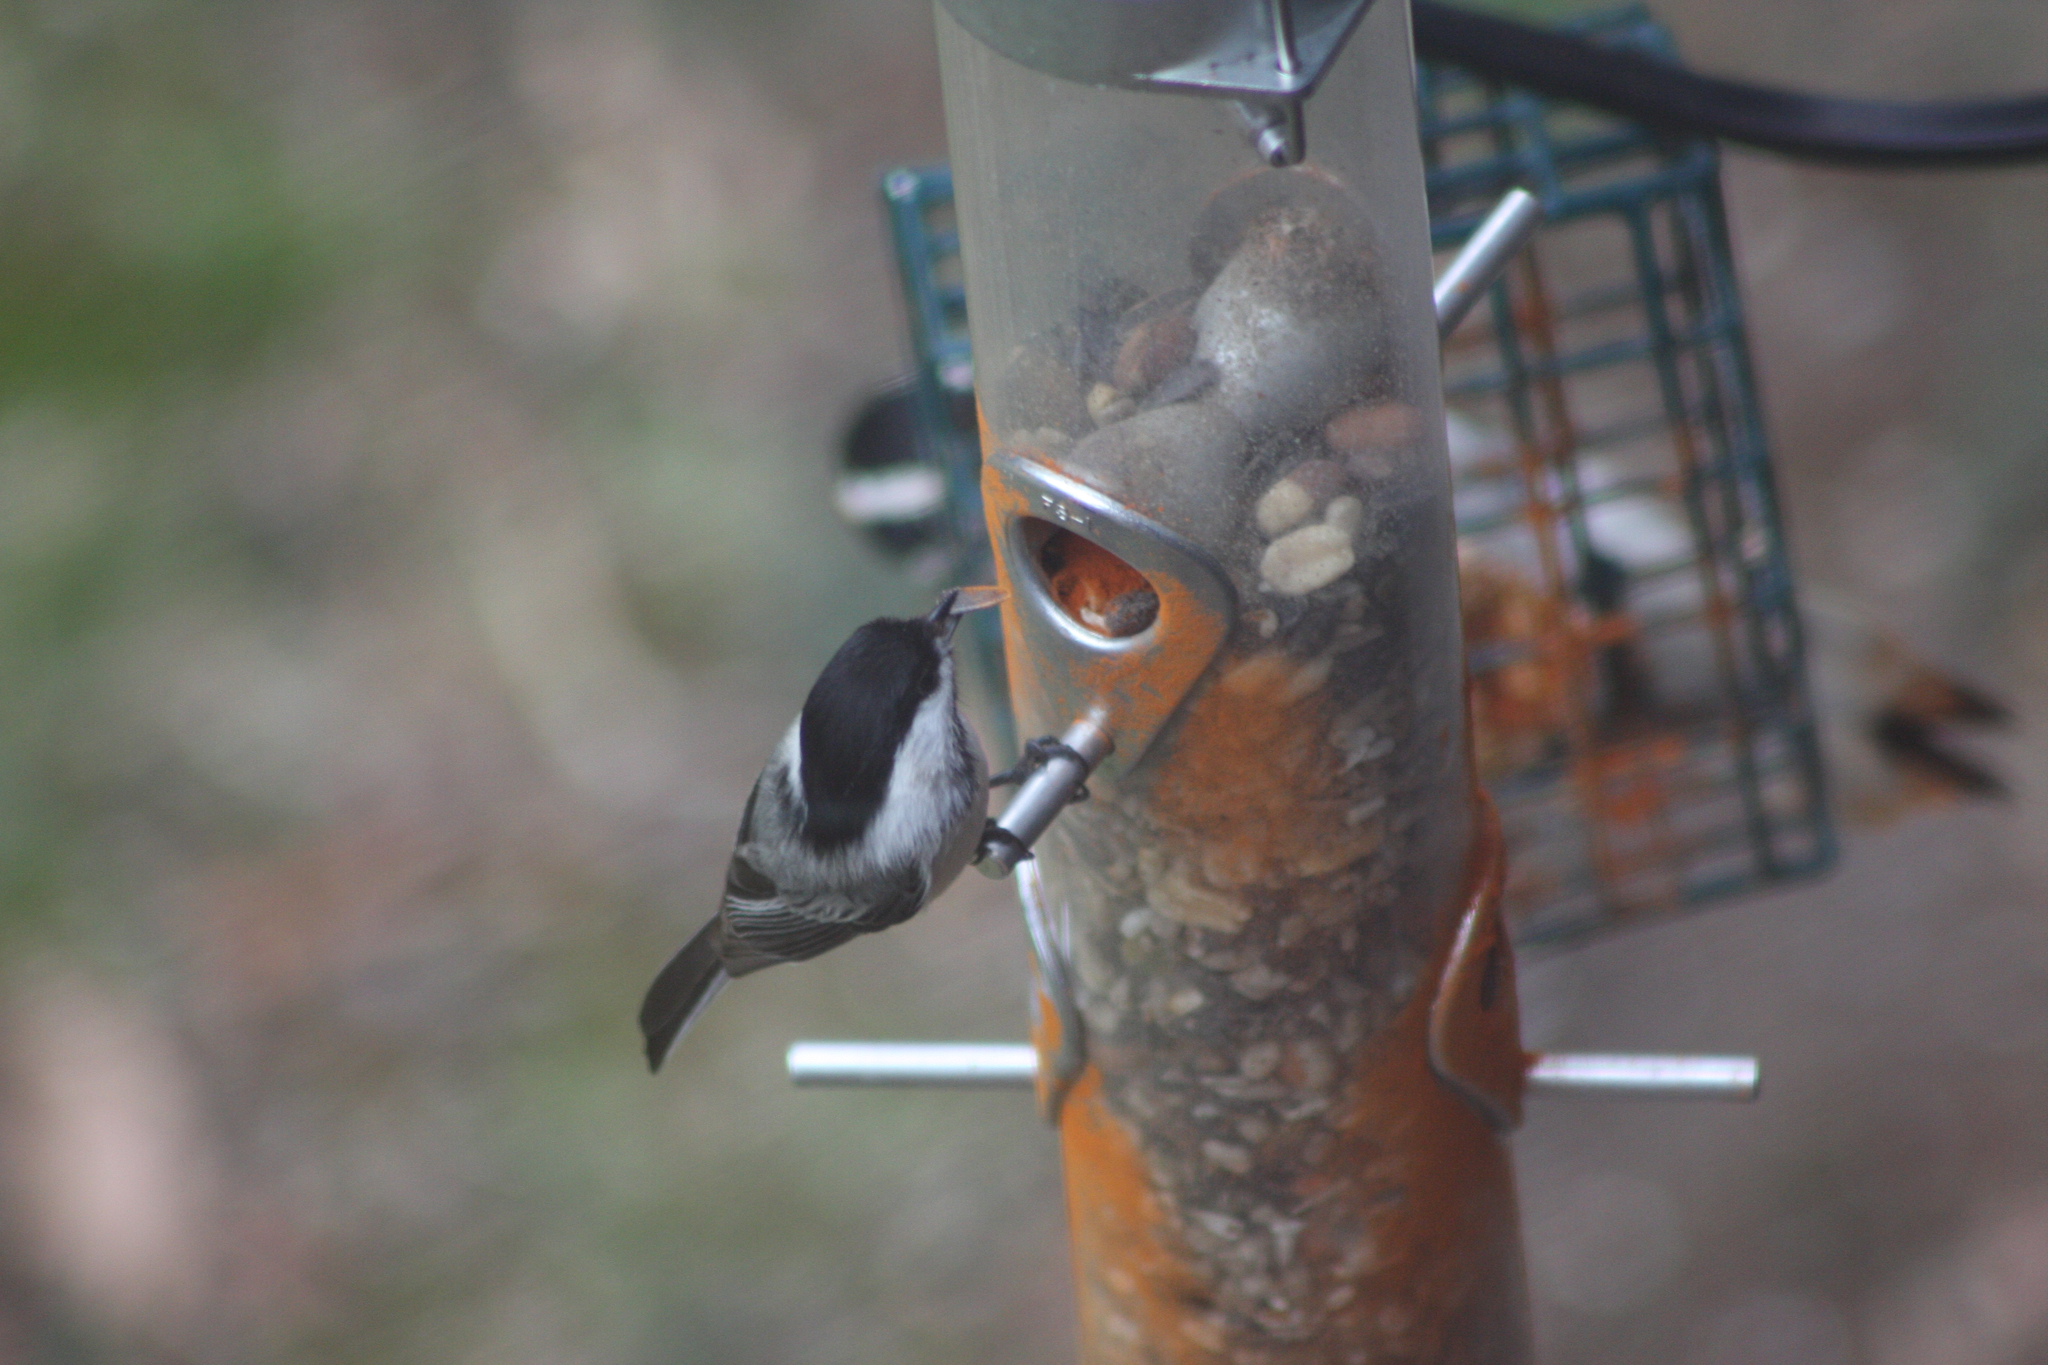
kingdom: Animalia
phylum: Chordata
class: Aves
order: Passeriformes
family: Paridae
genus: Poecile
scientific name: Poecile atricapillus
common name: Black-capped chickadee
